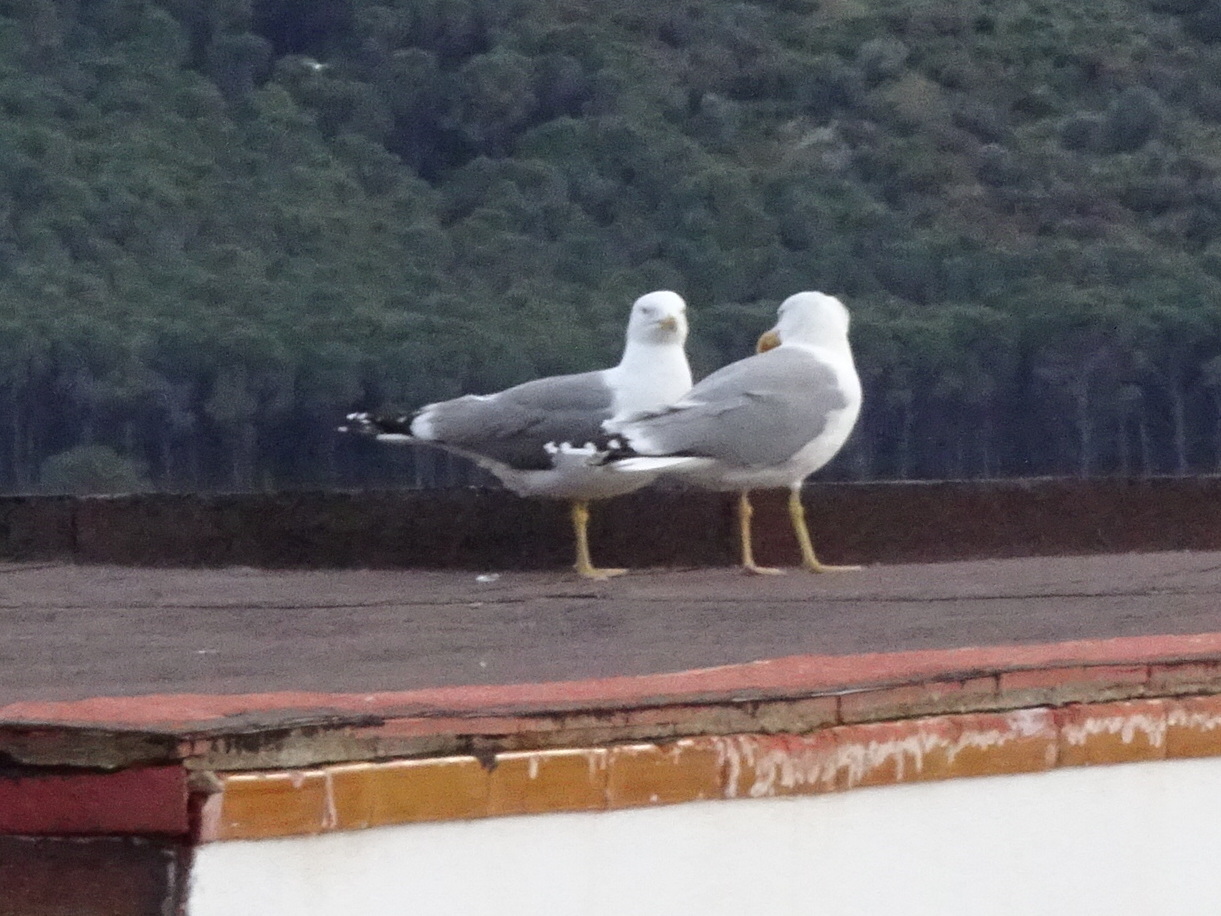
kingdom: Animalia
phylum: Chordata
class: Aves
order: Charadriiformes
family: Laridae
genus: Larus
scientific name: Larus michahellis
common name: Yellow-legged gull
